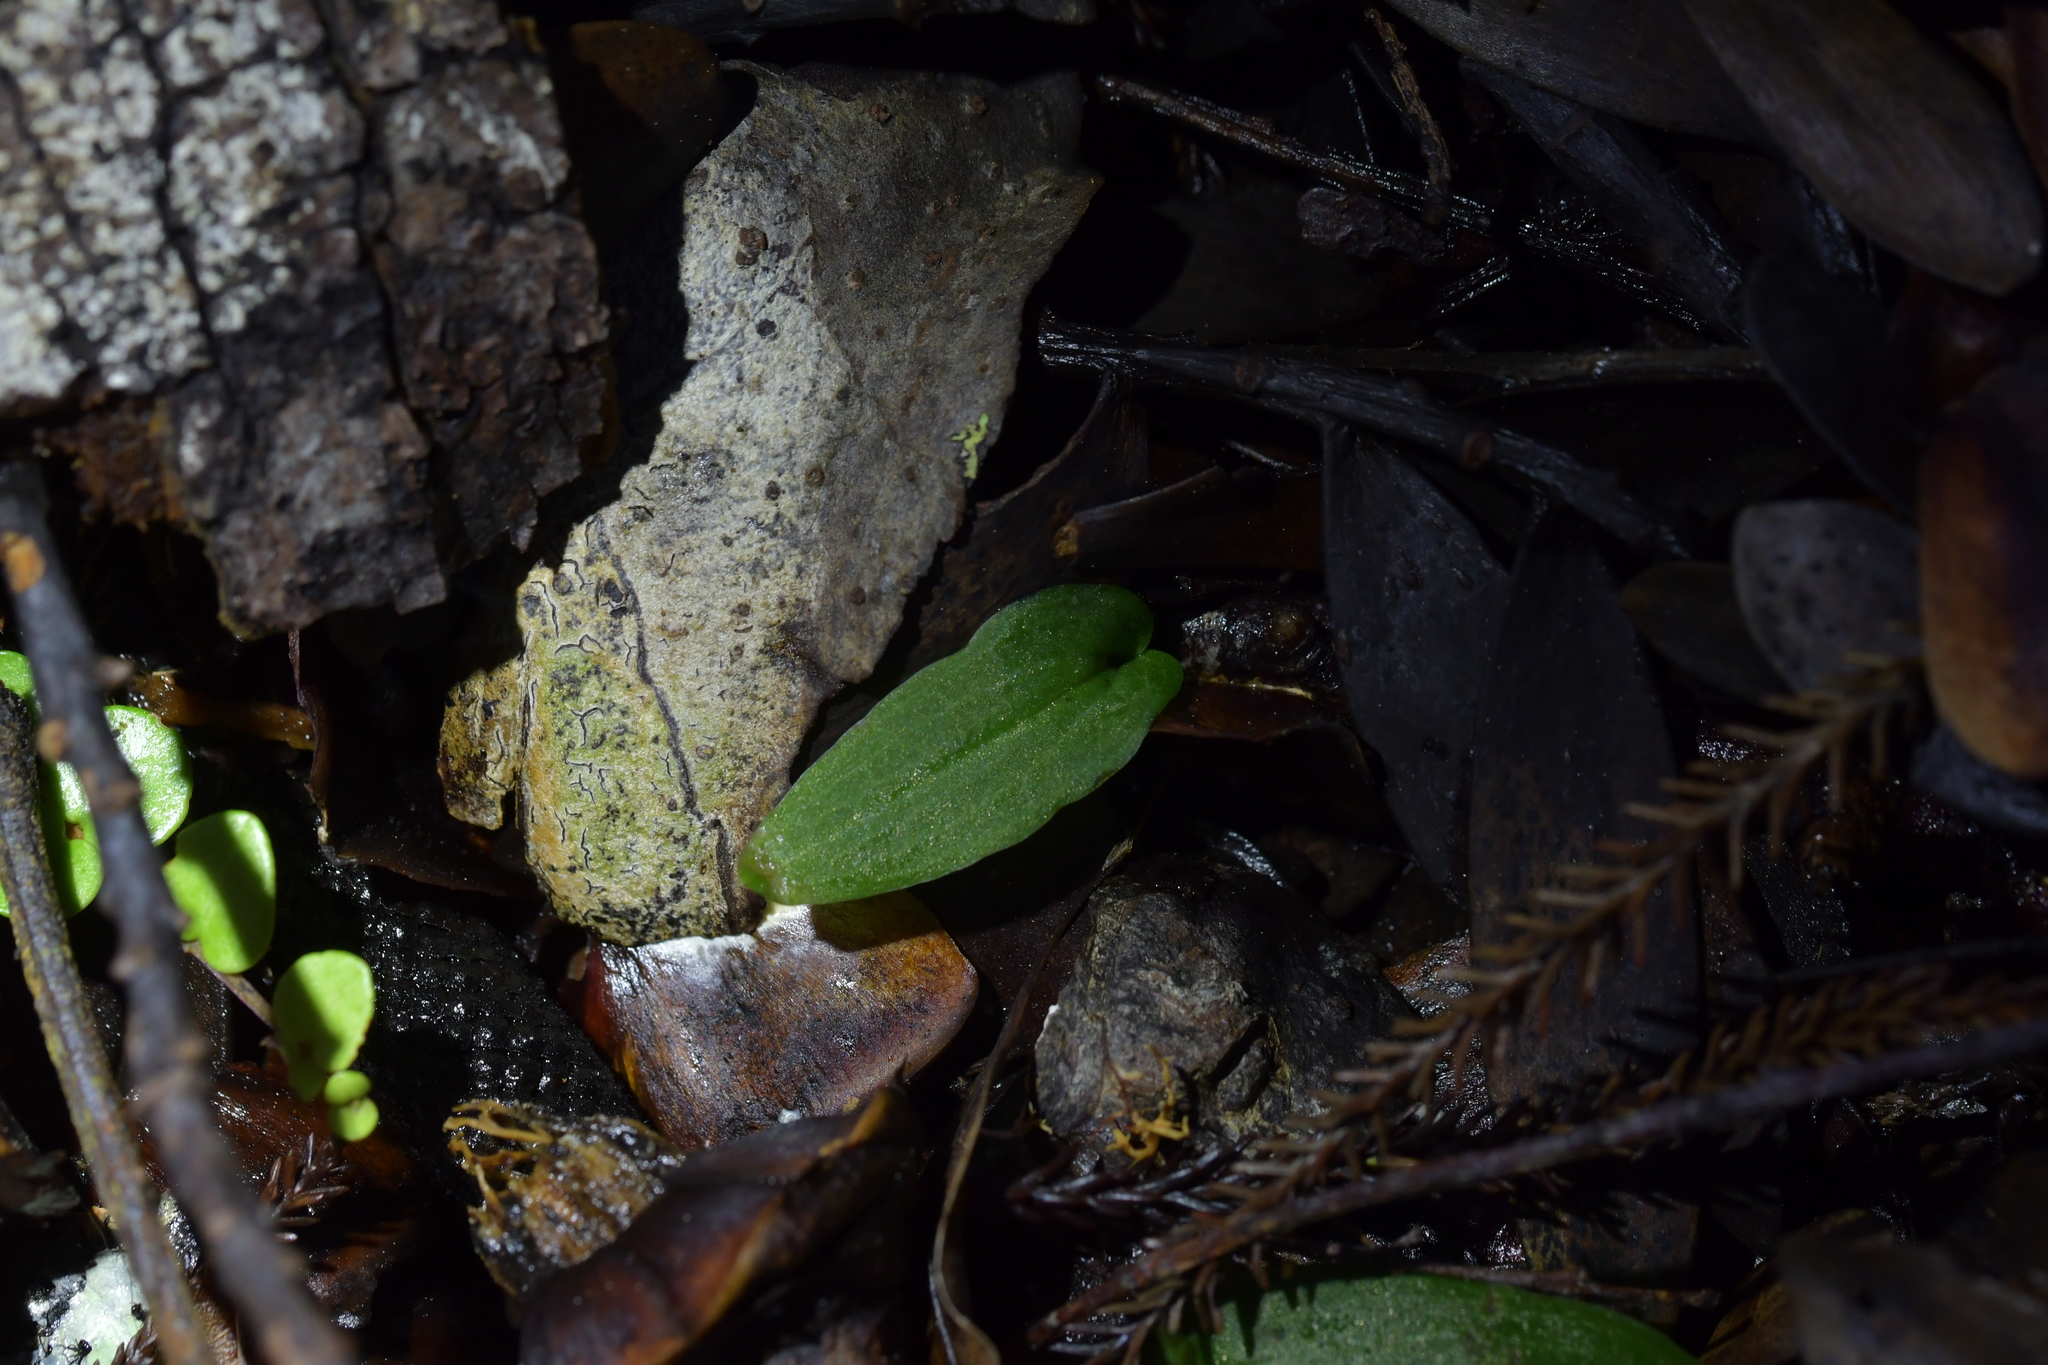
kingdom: Plantae
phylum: Tracheophyta
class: Liliopsida
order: Asparagales
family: Orchidaceae
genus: Cyrtostylis
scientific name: Cyrtostylis oblonga
